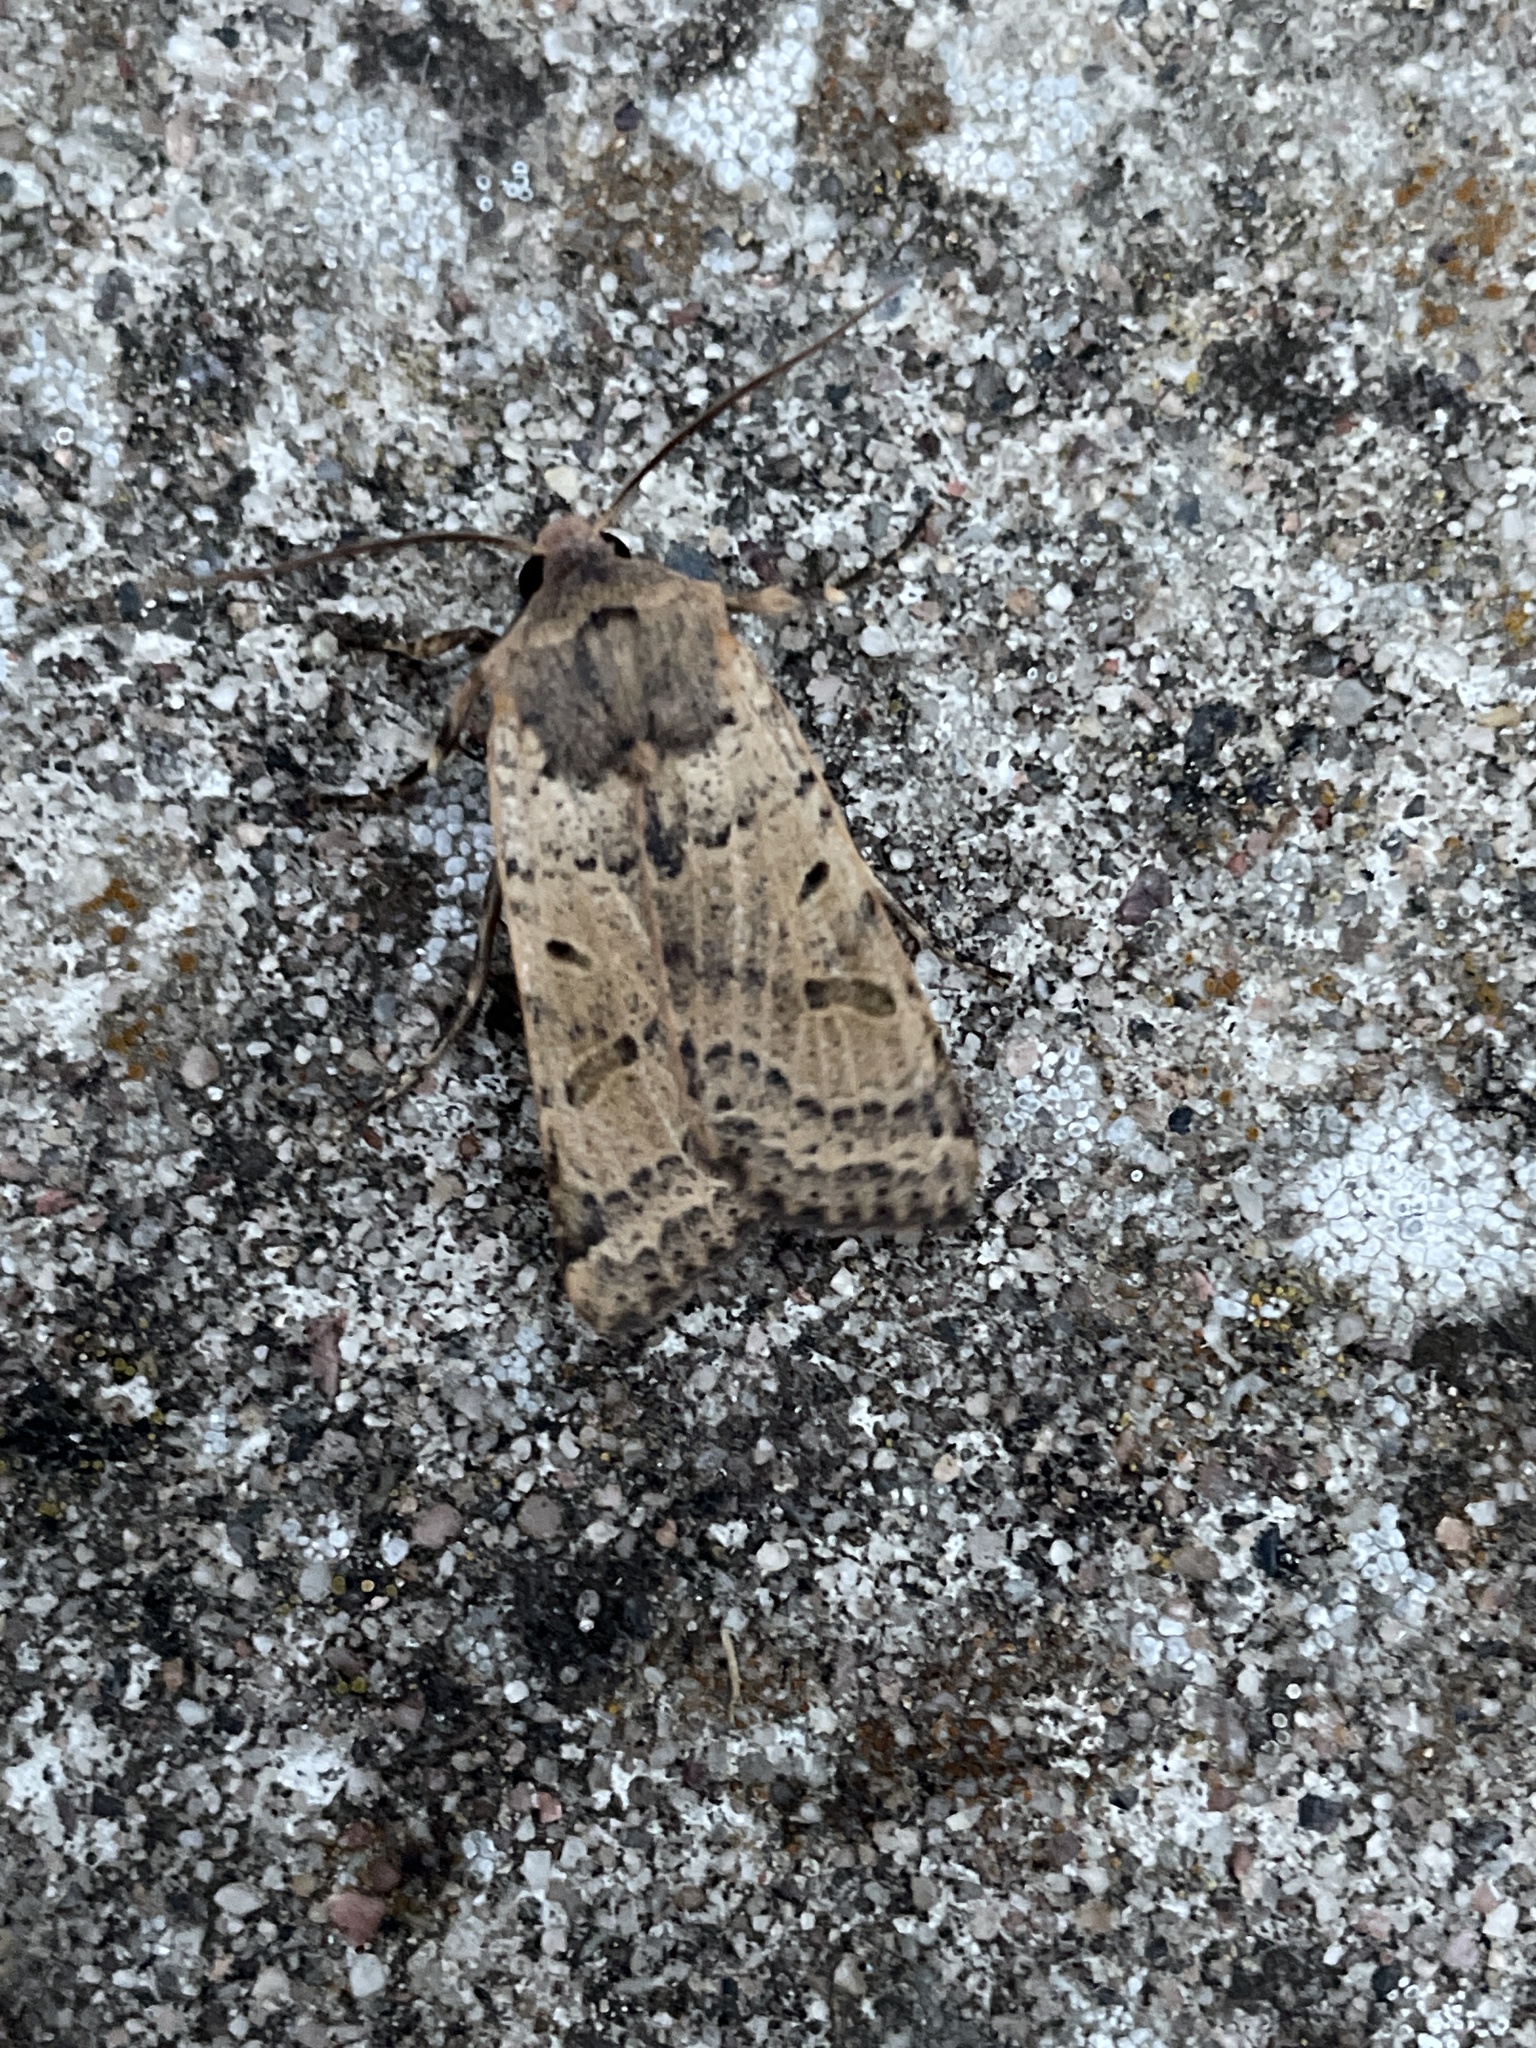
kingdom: Animalia
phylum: Arthropoda
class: Insecta
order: Lepidoptera
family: Noctuidae
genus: Agrochola
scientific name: Agrochola lychnidis
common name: Beaded chestnut
